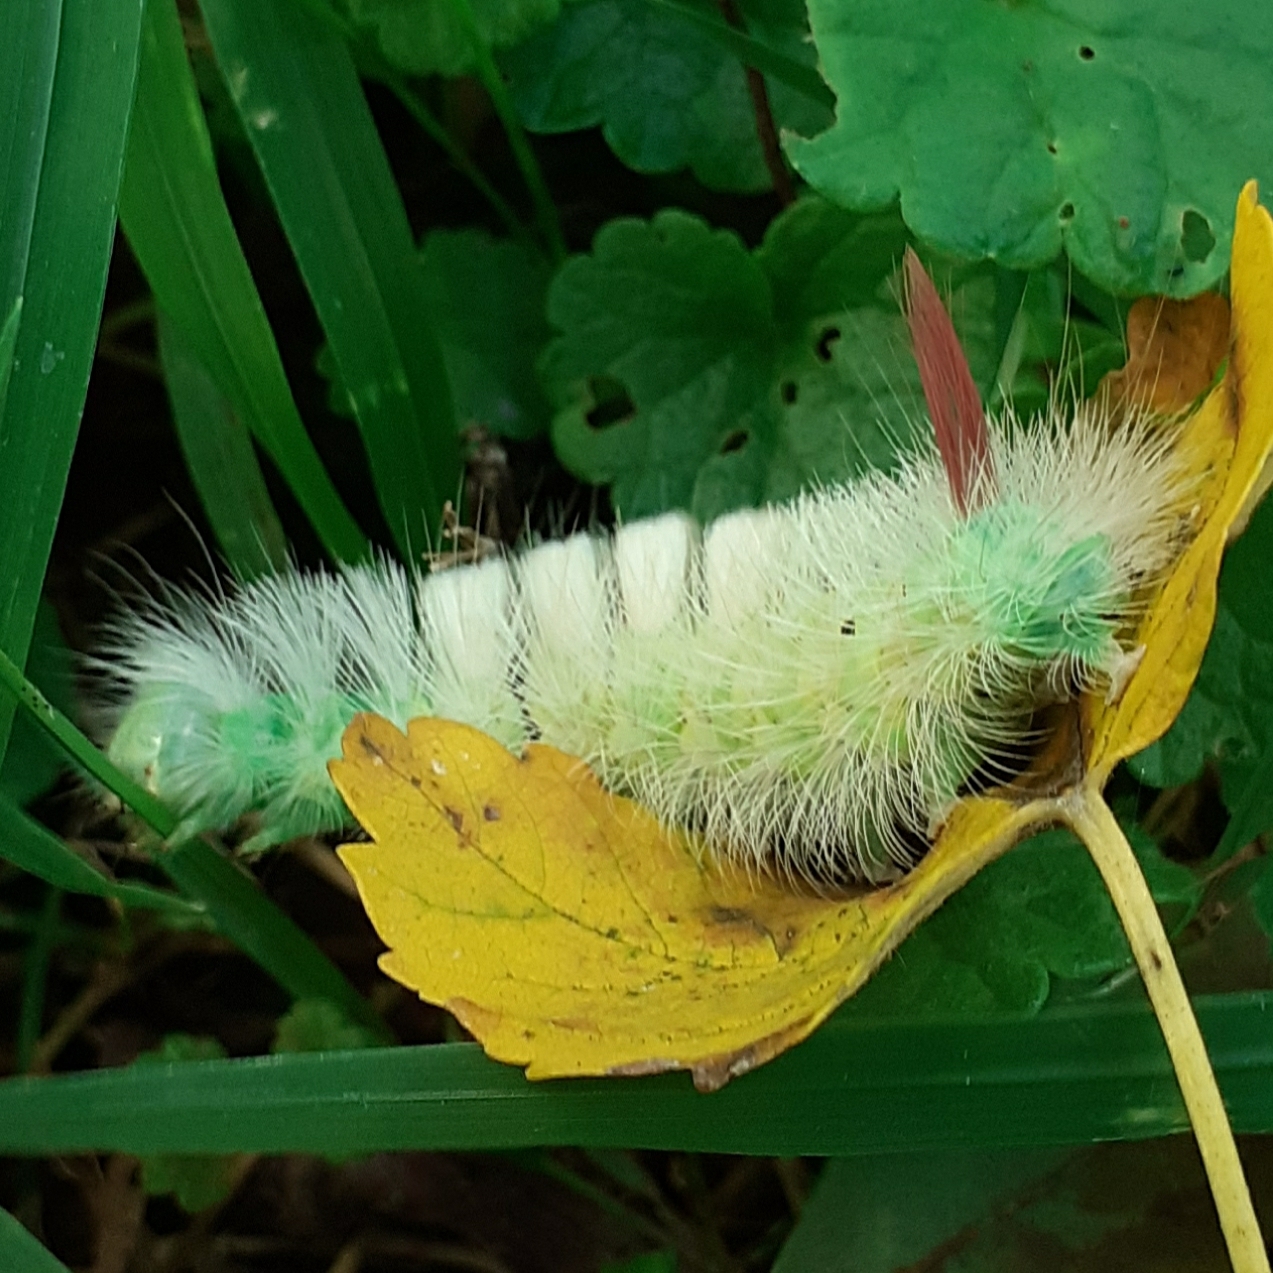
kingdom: Animalia
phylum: Arthropoda
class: Insecta
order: Lepidoptera
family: Erebidae
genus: Calliteara
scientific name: Calliteara pudibunda
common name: Pale tussock
